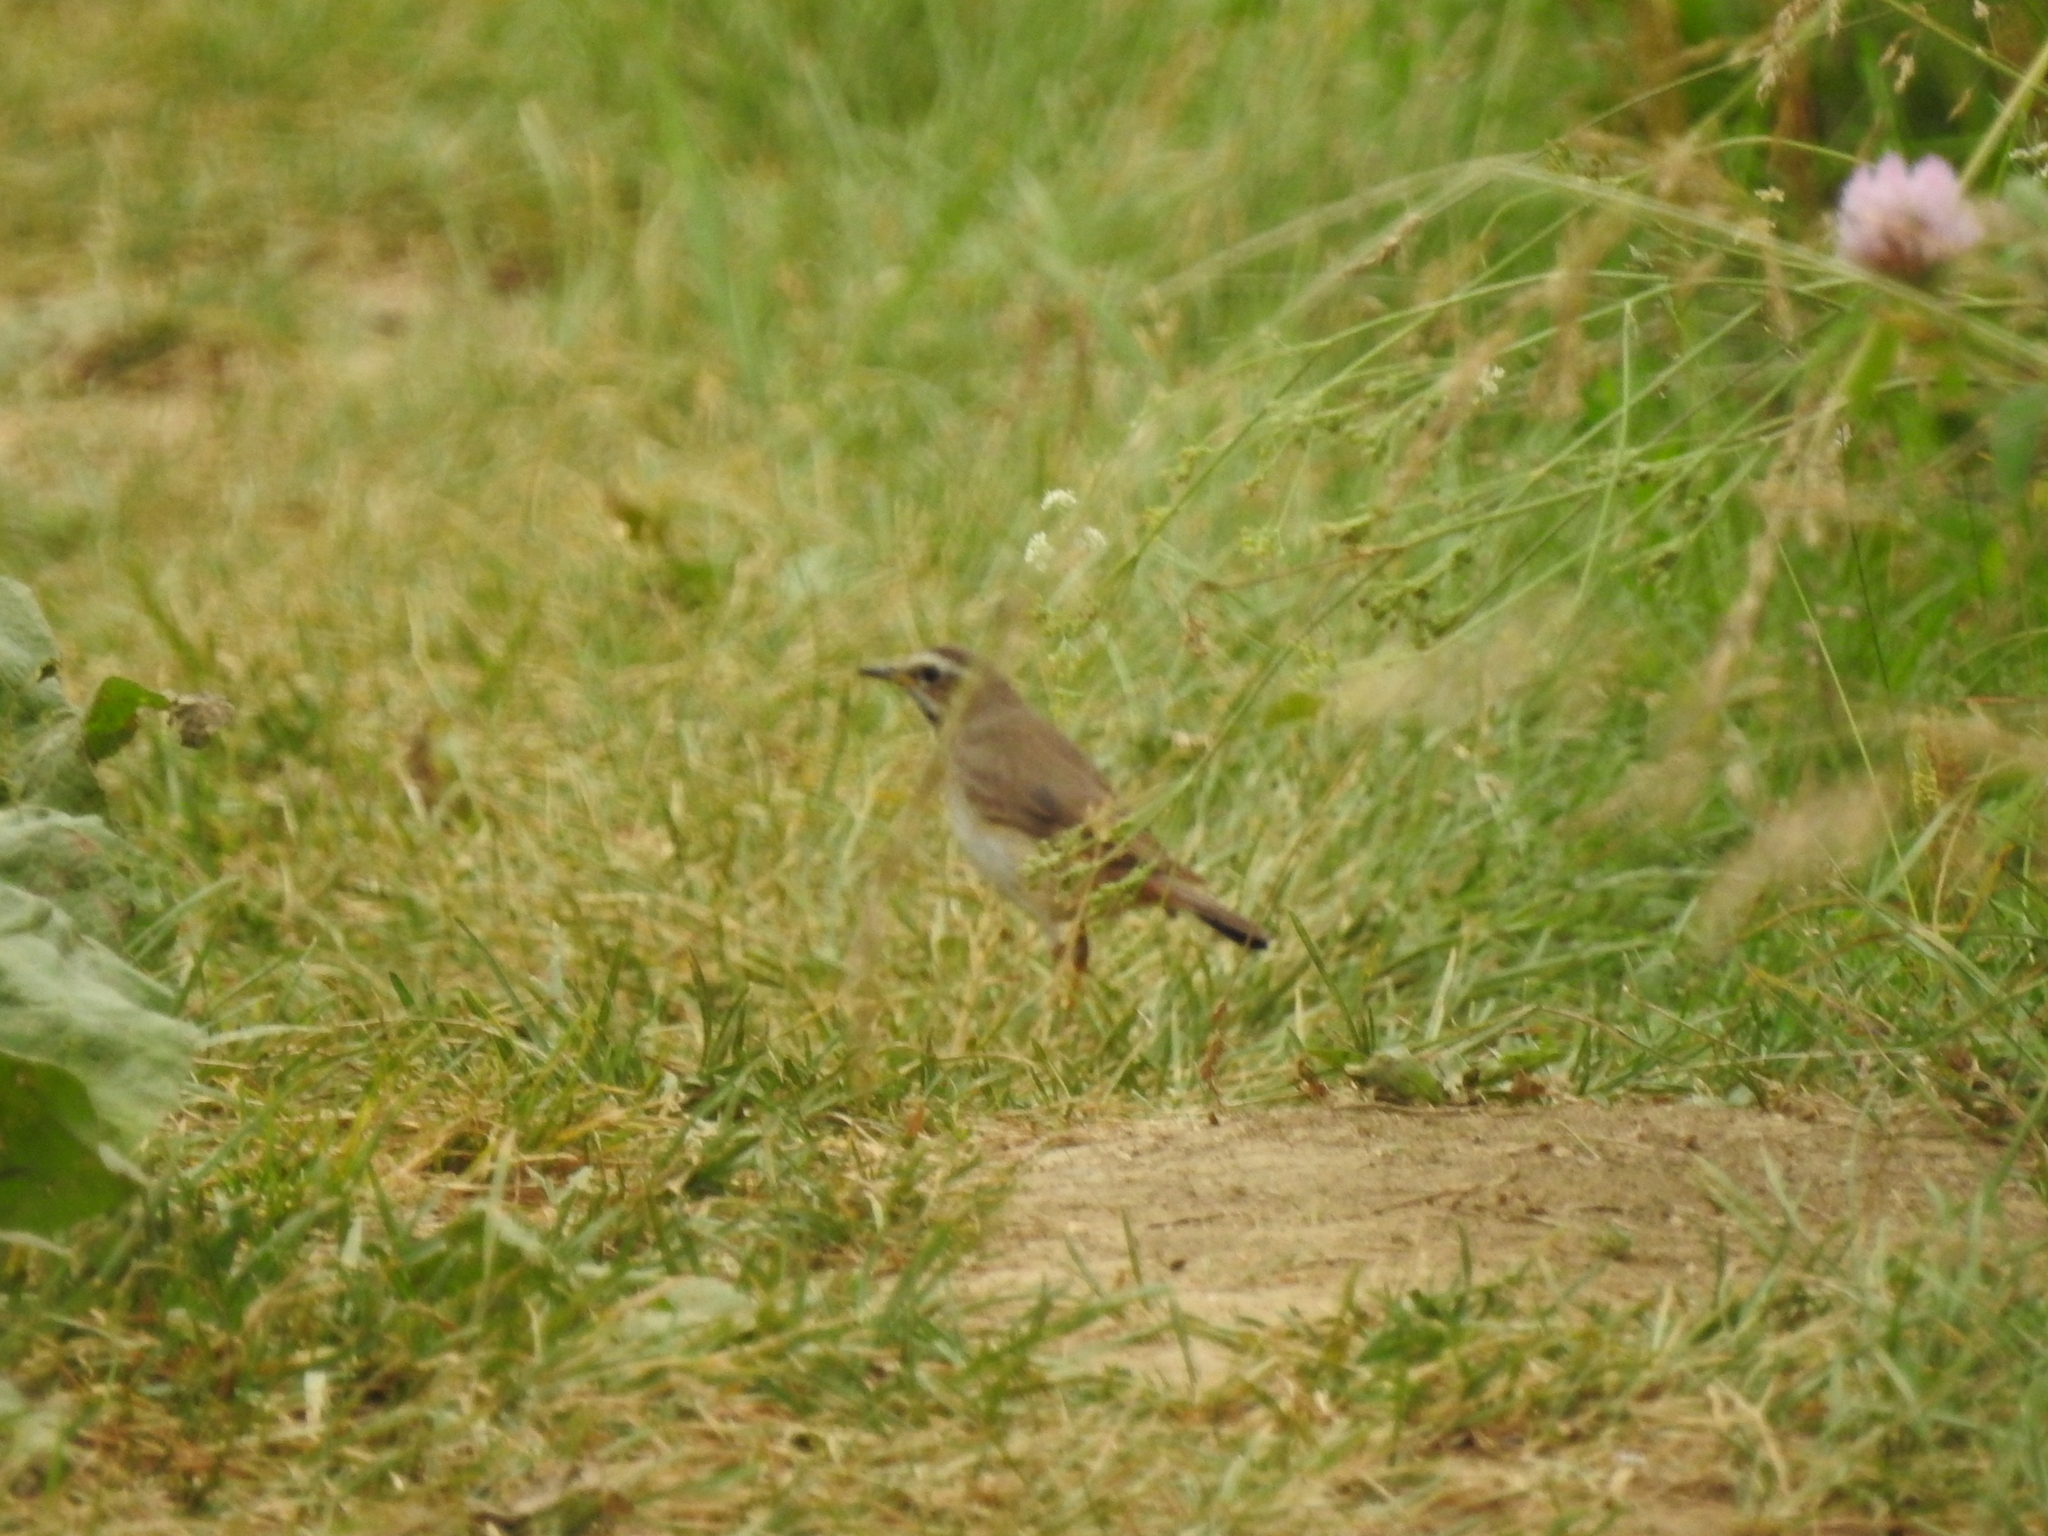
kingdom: Animalia
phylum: Chordata
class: Aves
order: Passeriformes
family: Muscicapidae
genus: Luscinia
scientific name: Luscinia svecica
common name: Bluethroat
